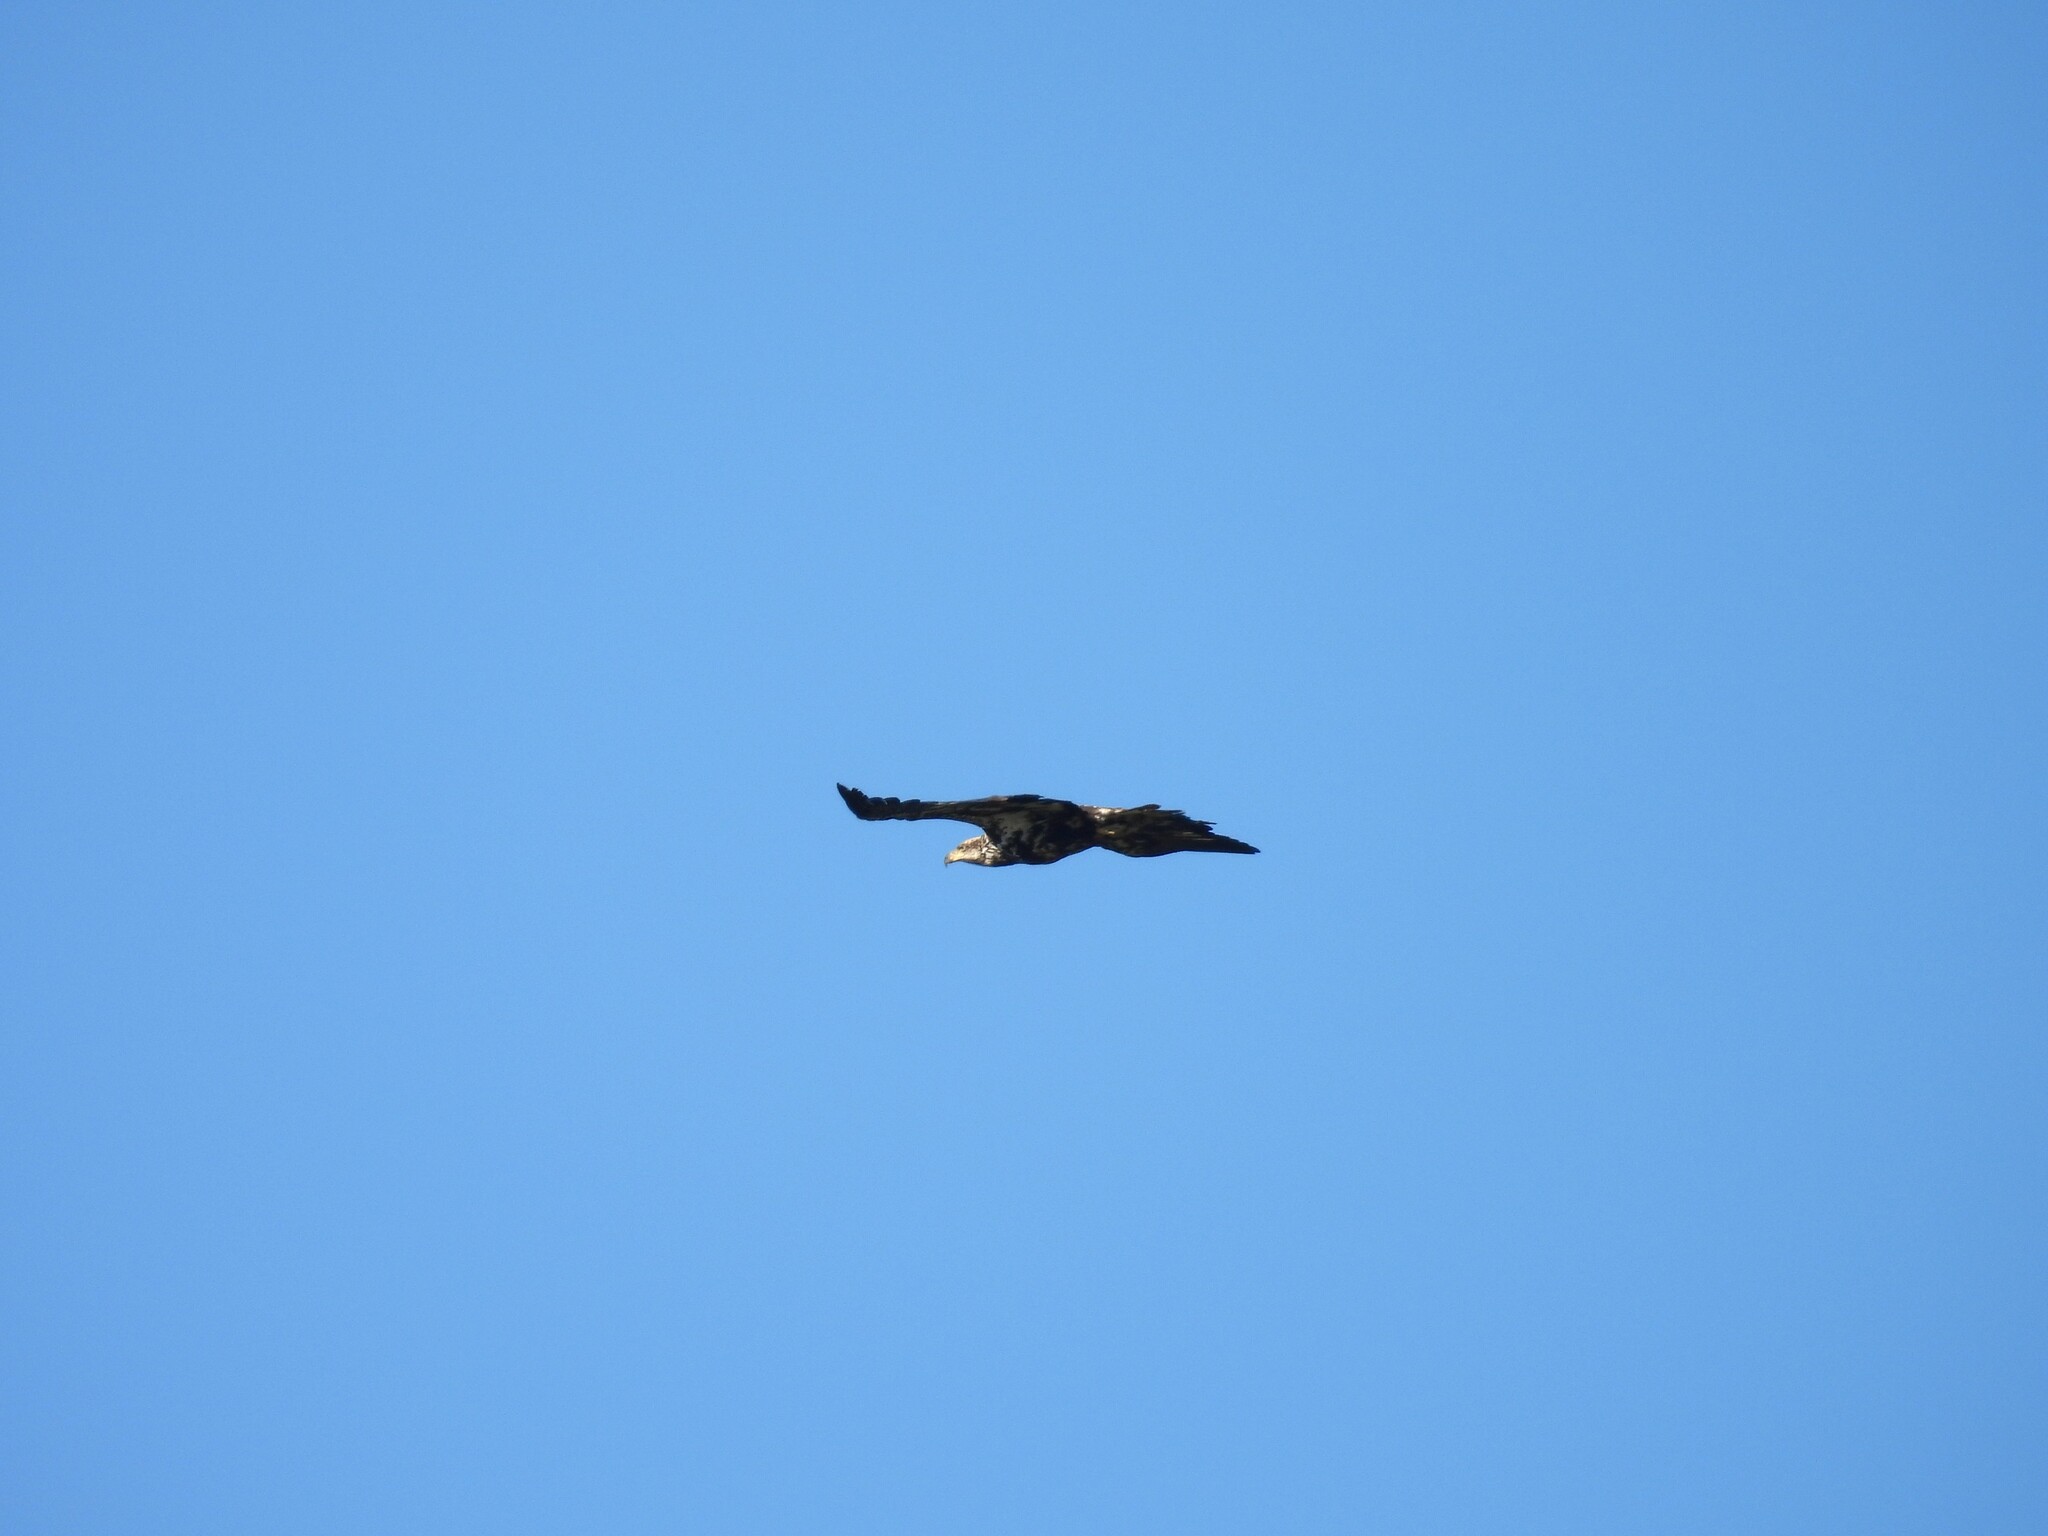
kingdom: Animalia
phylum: Chordata
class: Aves
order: Accipitriformes
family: Accipitridae
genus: Haliaeetus
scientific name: Haliaeetus leucocephalus
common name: Bald eagle
